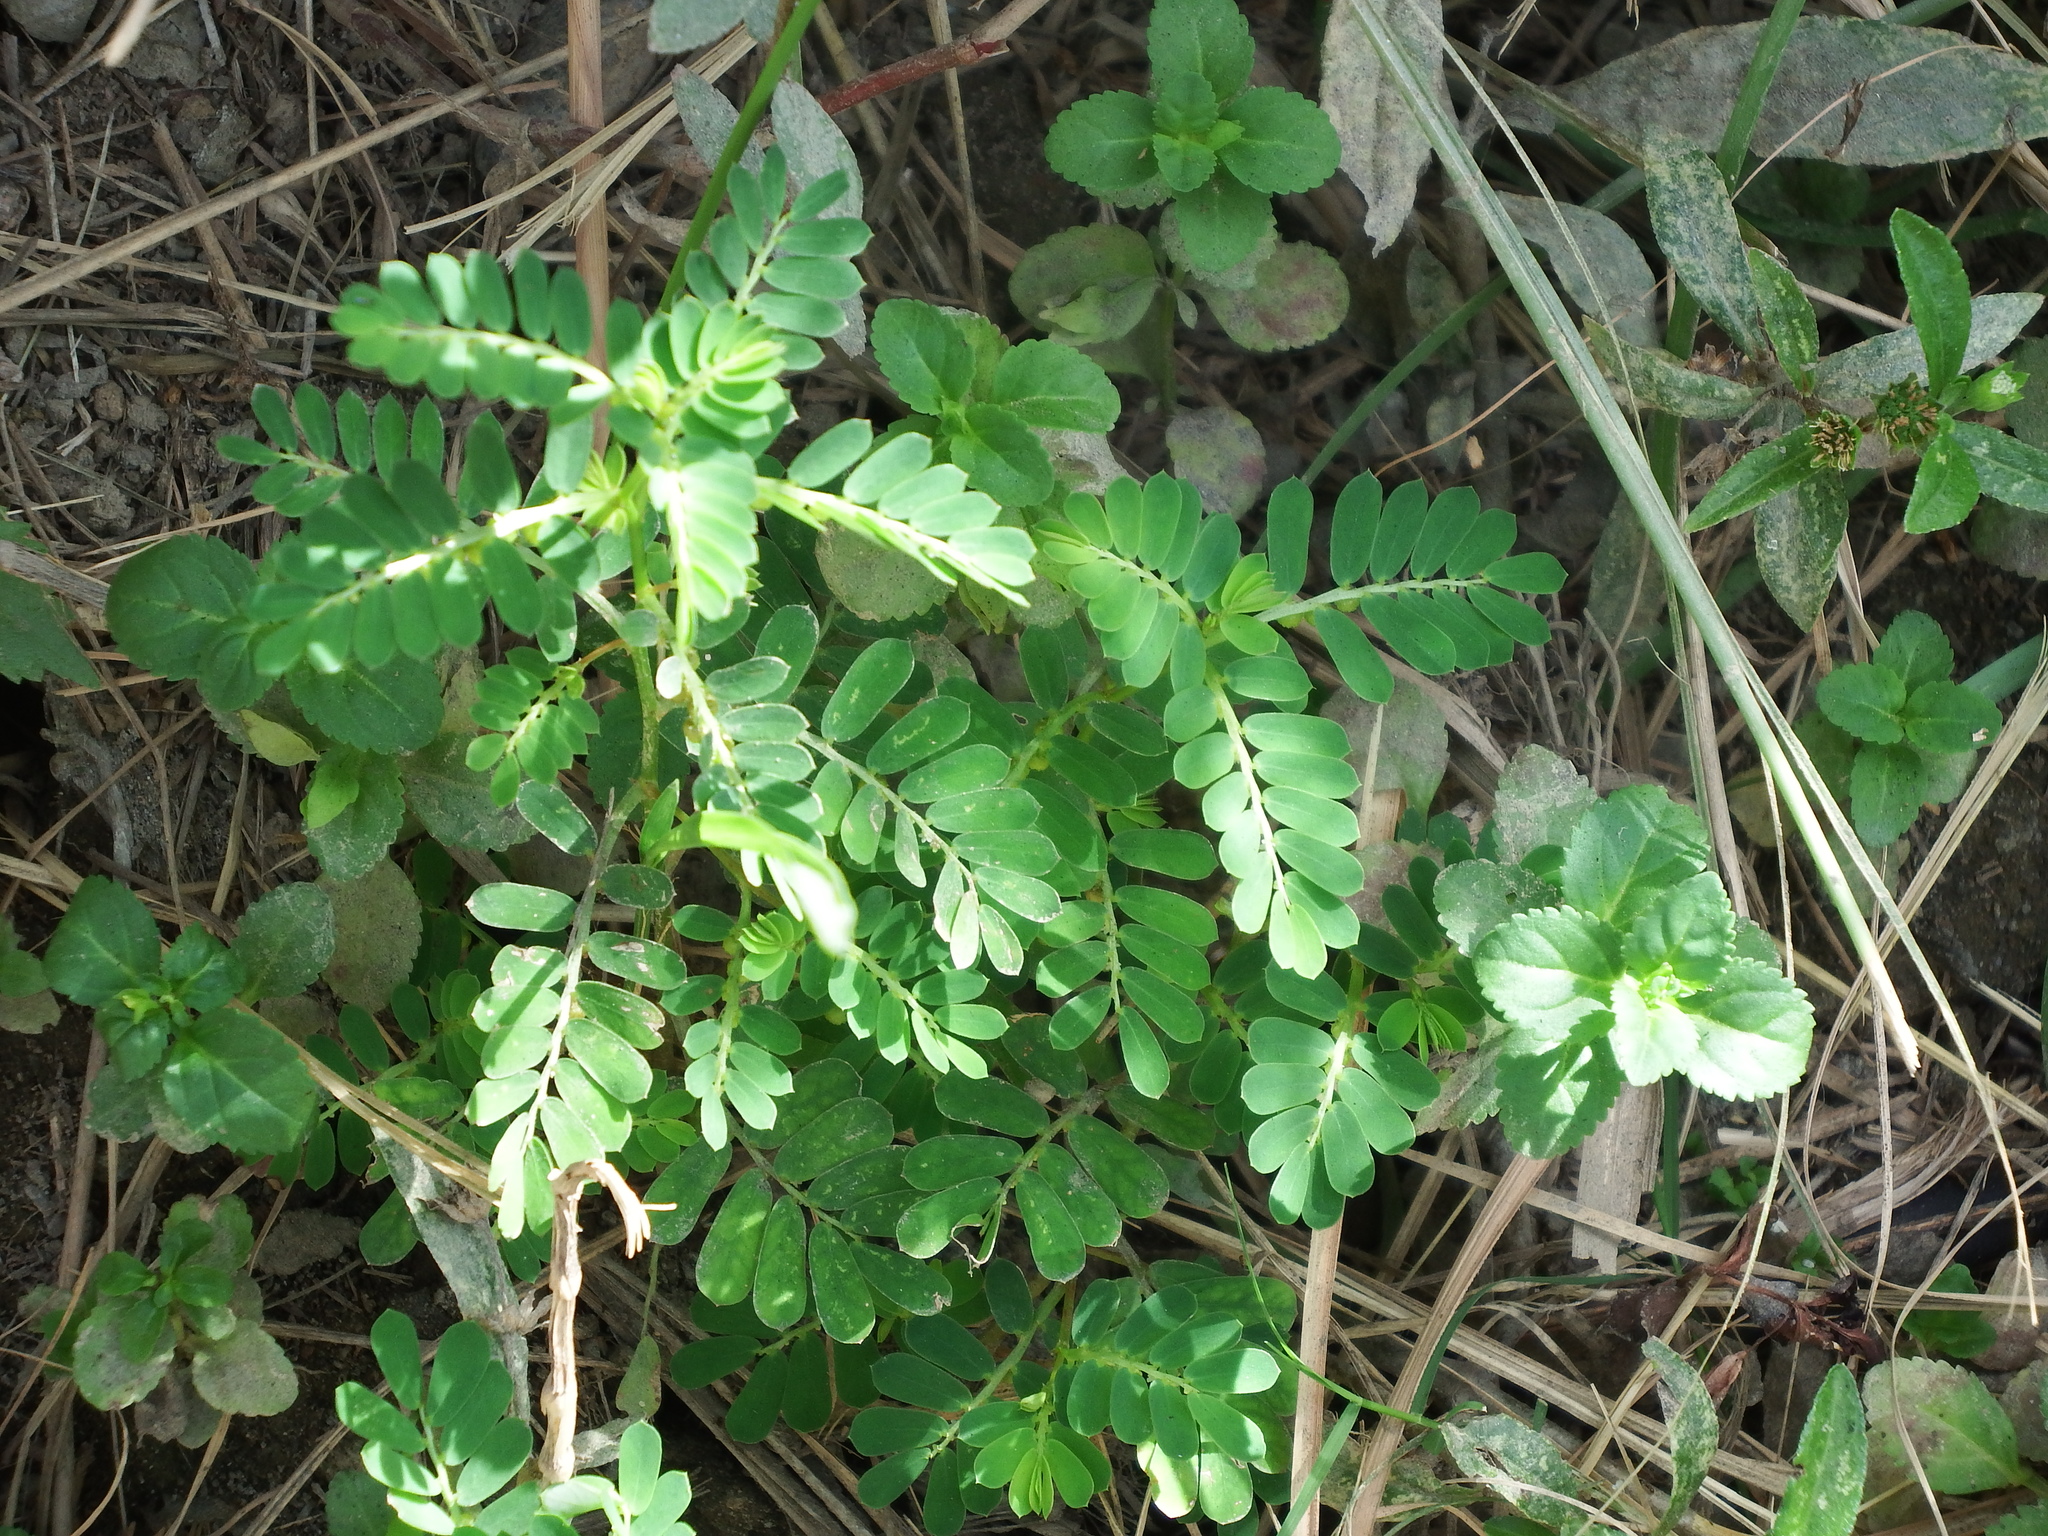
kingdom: Plantae
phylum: Tracheophyta
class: Magnoliopsida
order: Malpighiales
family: Phyllanthaceae
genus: Phyllanthus
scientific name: Phyllanthus urinaria
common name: Chamber bitter
